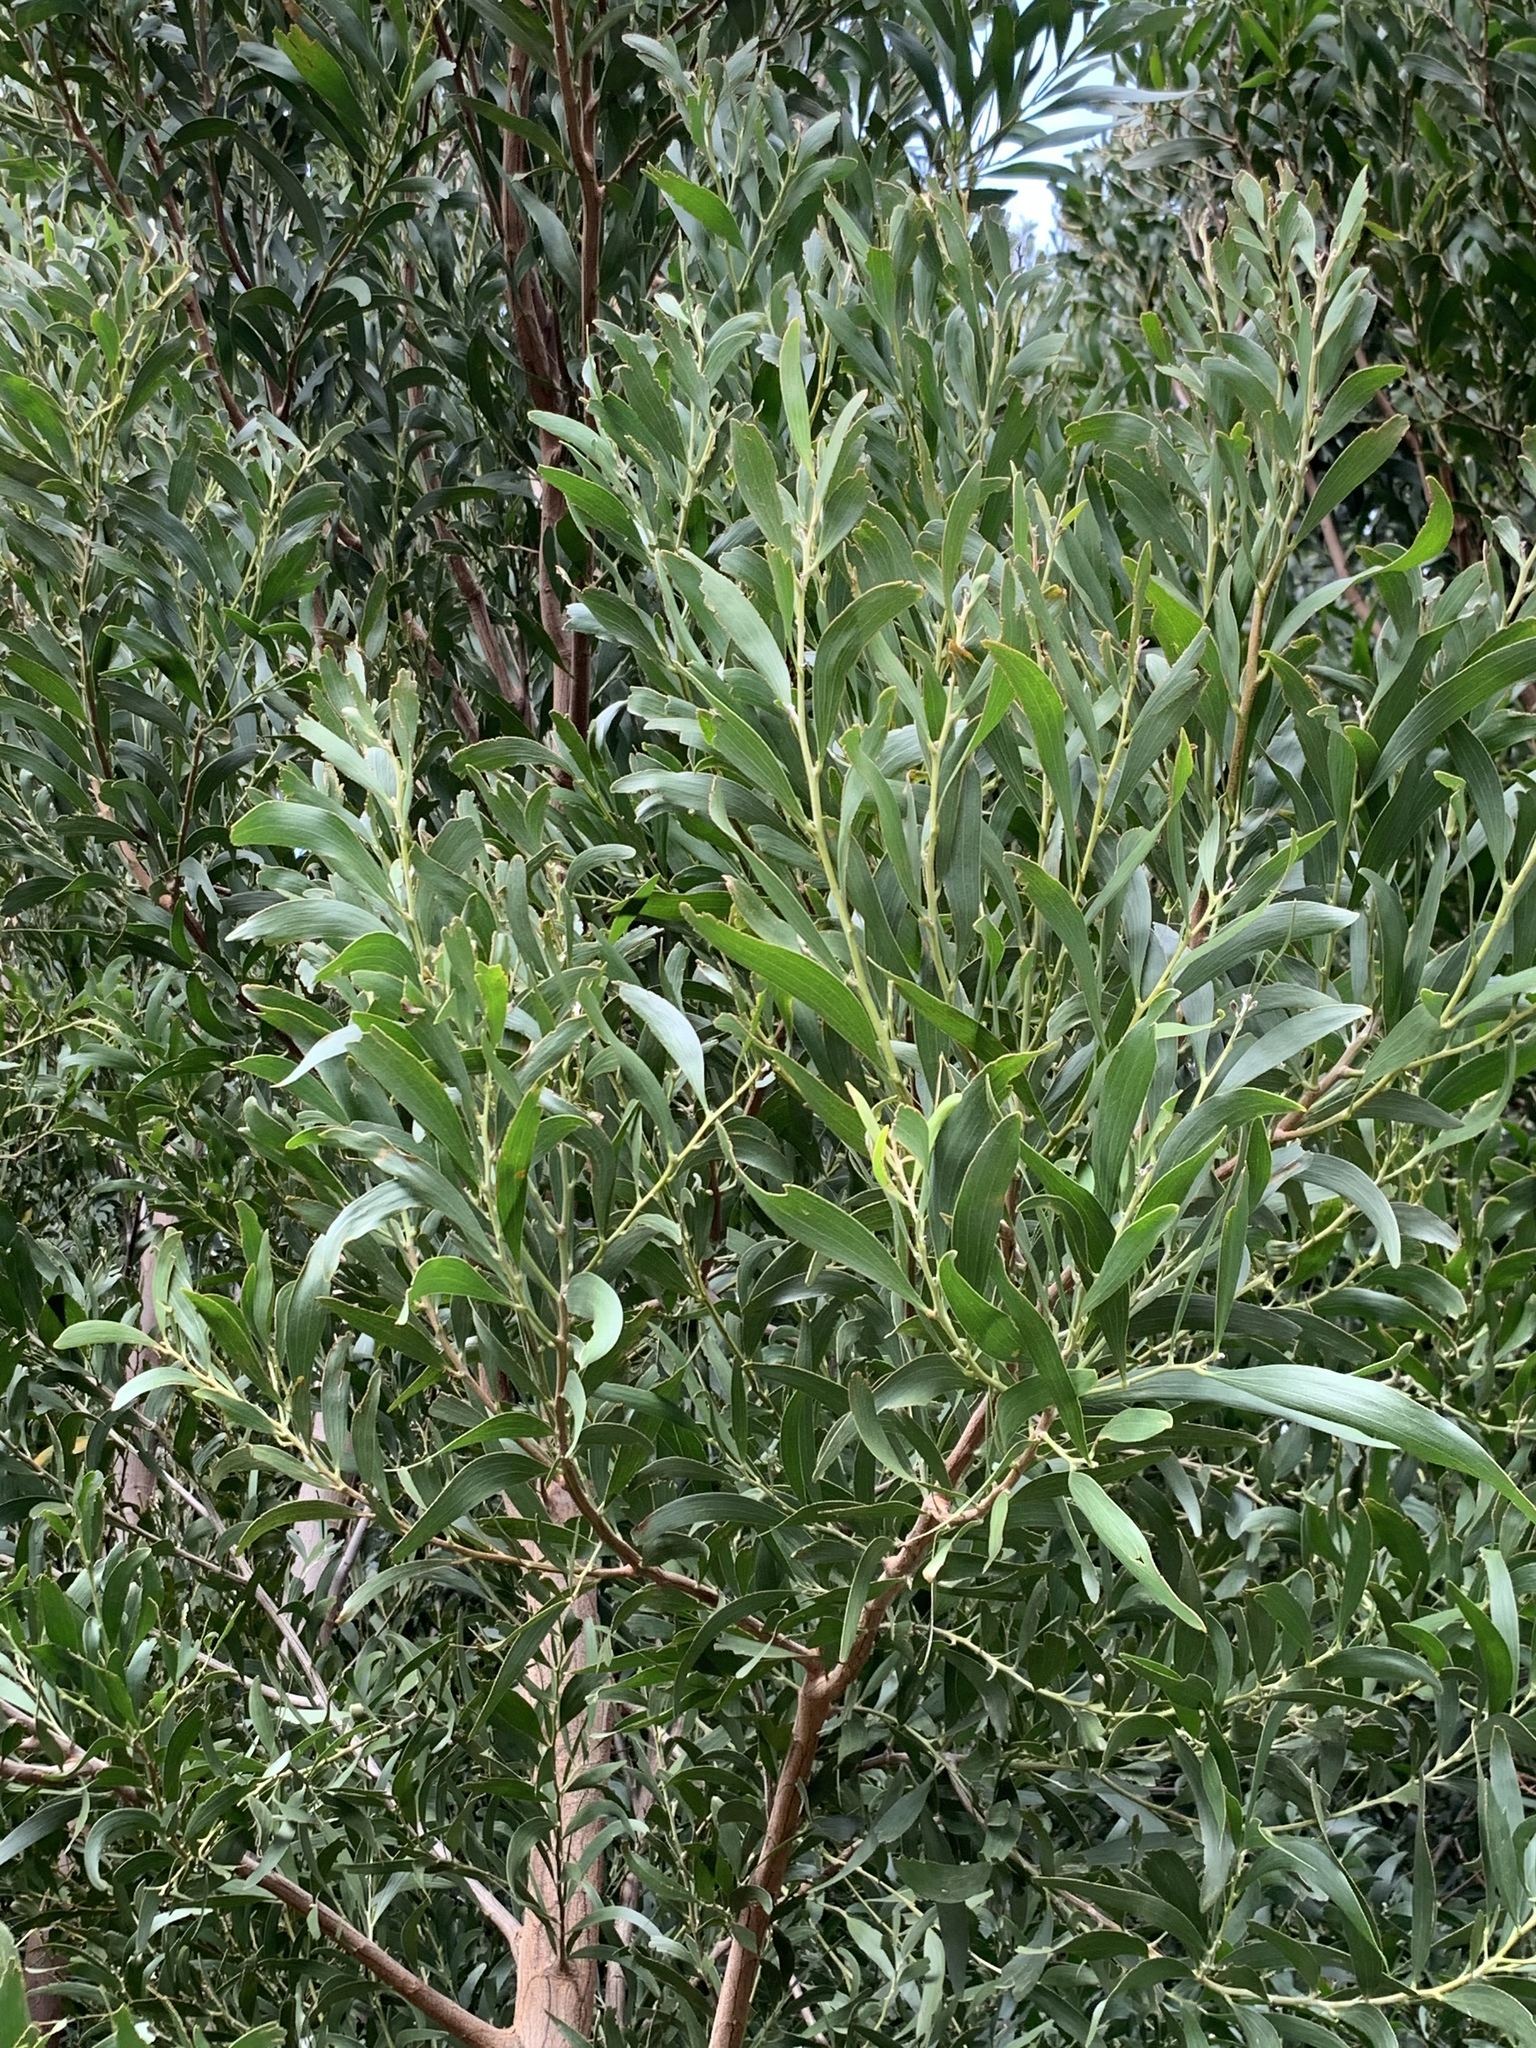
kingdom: Plantae
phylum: Tracheophyta
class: Magnoliopsida
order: Fabales
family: Fabaceae
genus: Acacia
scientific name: Acacia melanoxylon
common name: Blackwood
